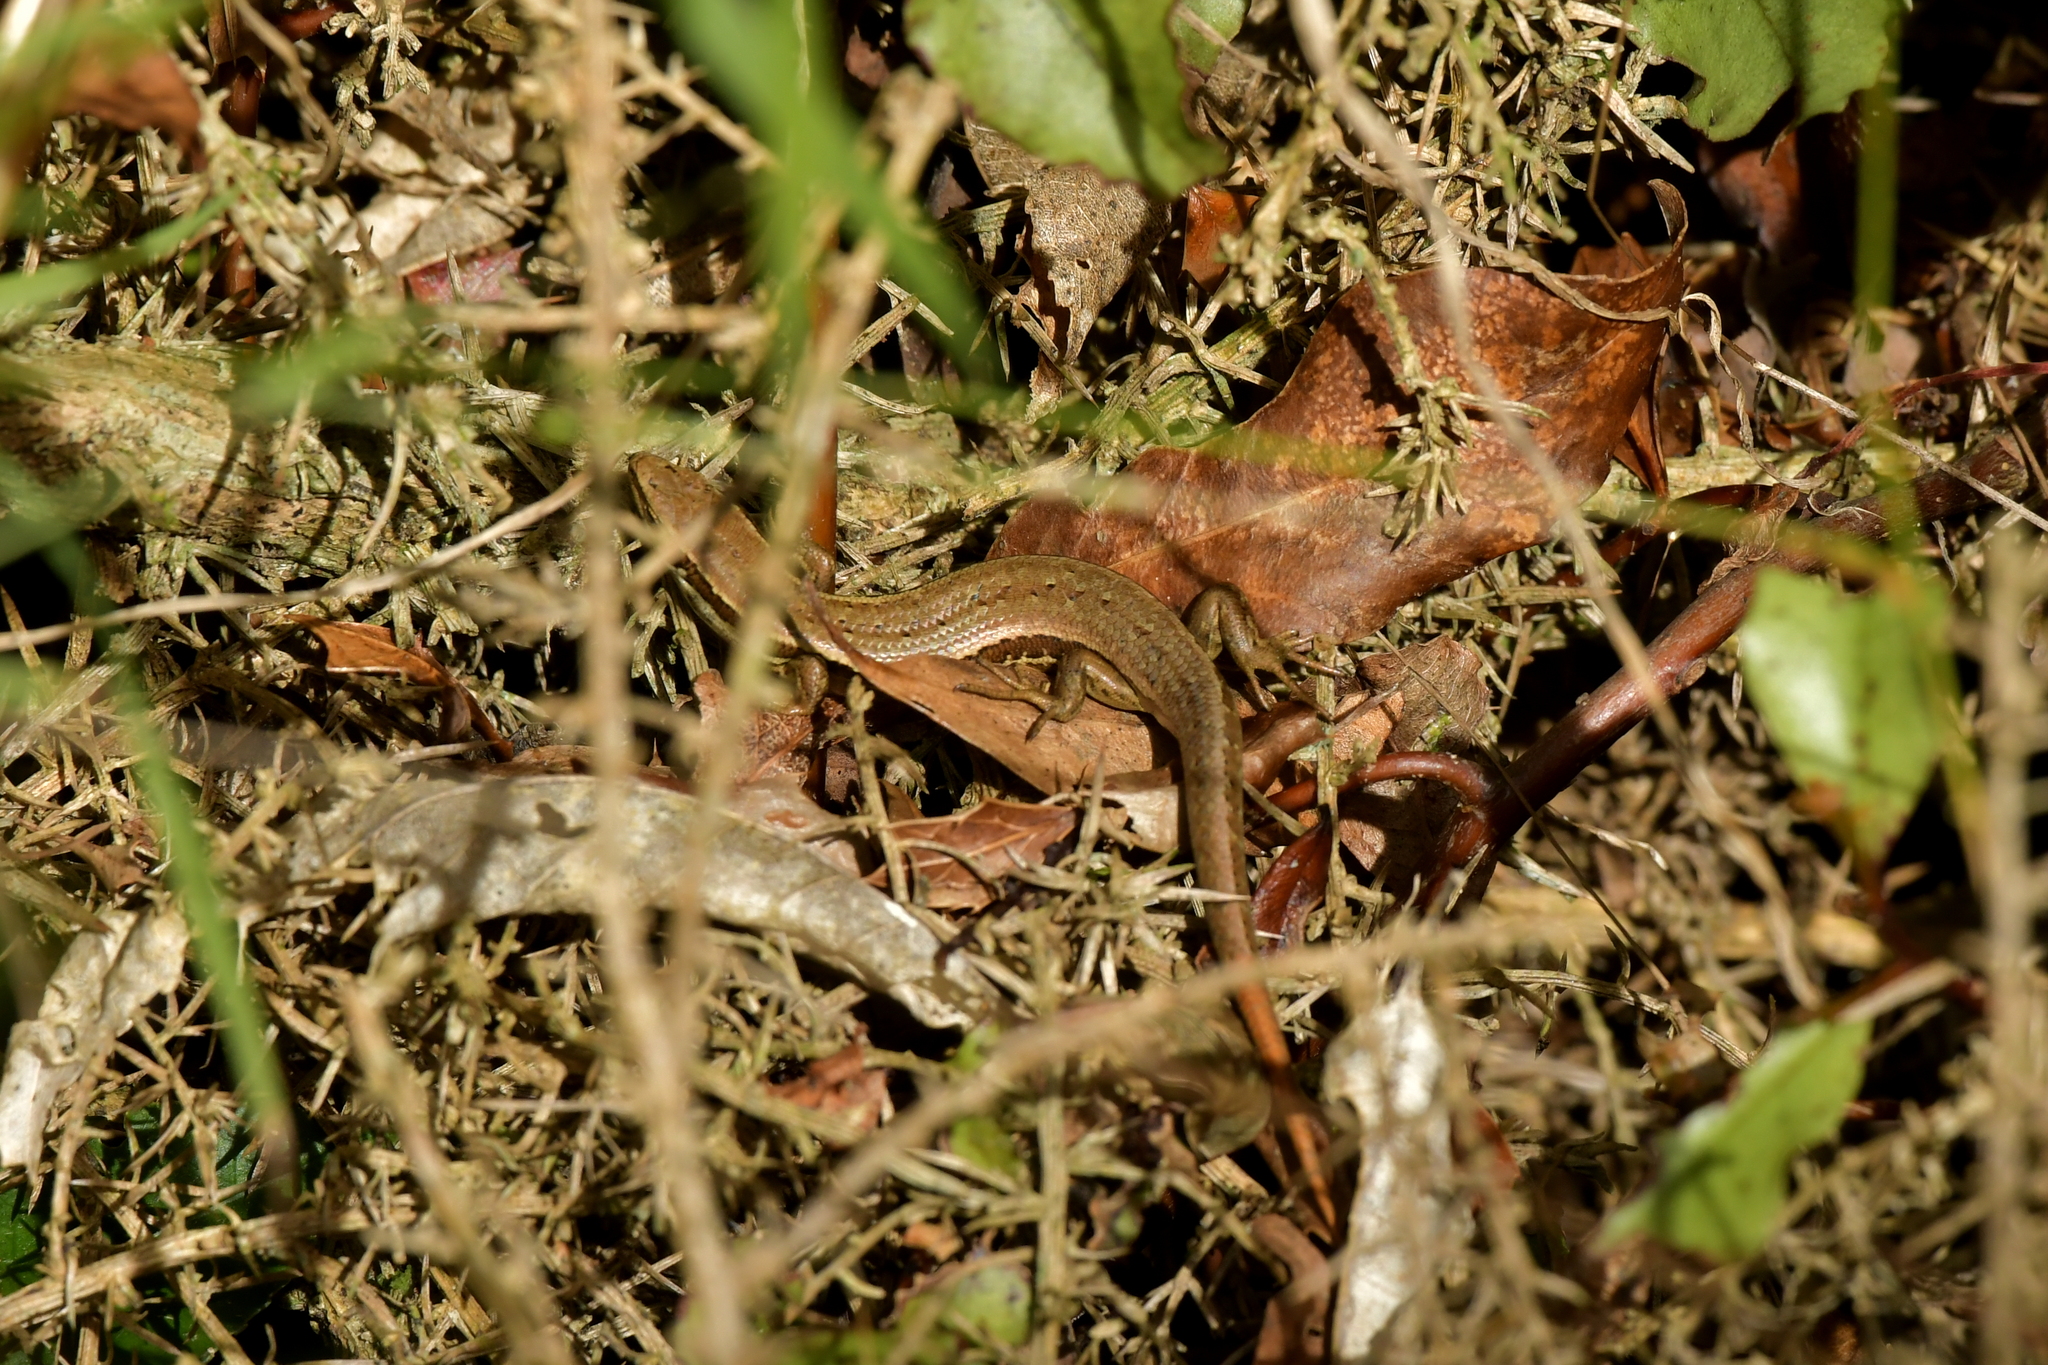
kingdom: Animalia
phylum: Chordata
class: Squamata
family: Scincidae
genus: Oligosoma
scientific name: Oligosoma polychroma
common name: Common new zealand skink
